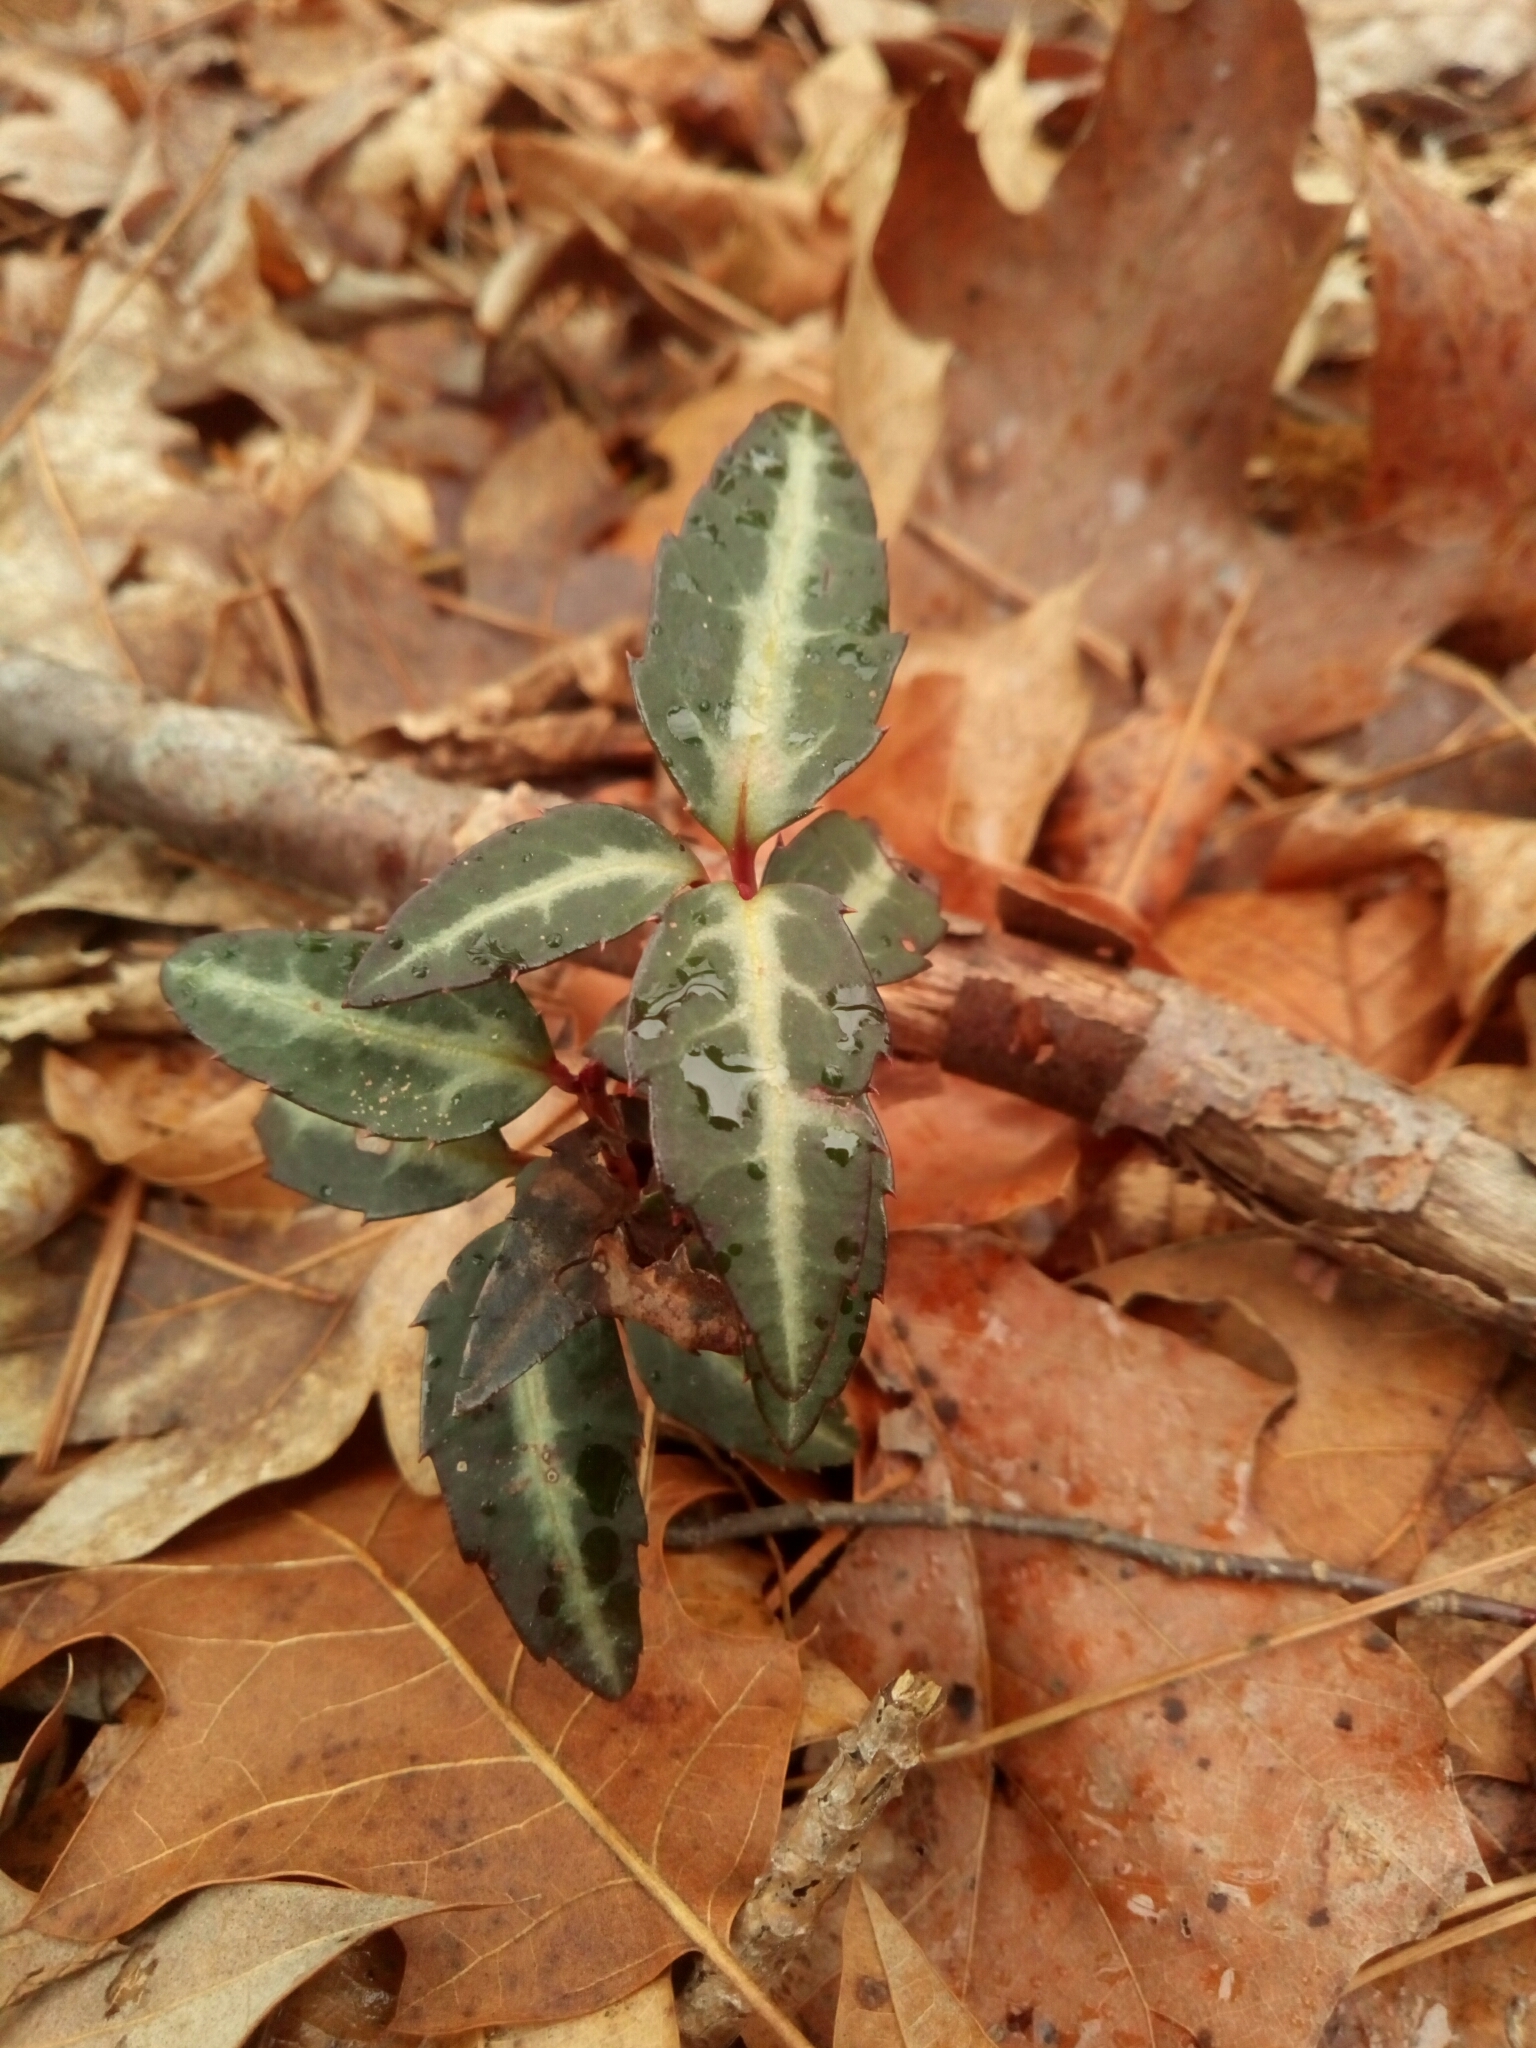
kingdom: Plantae
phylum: Tracheophyta
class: Magnoliopsida
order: Ericales
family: Ericaceae
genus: Chimaphila
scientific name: Chimaphila maculata
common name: Spotted pipsissewa
